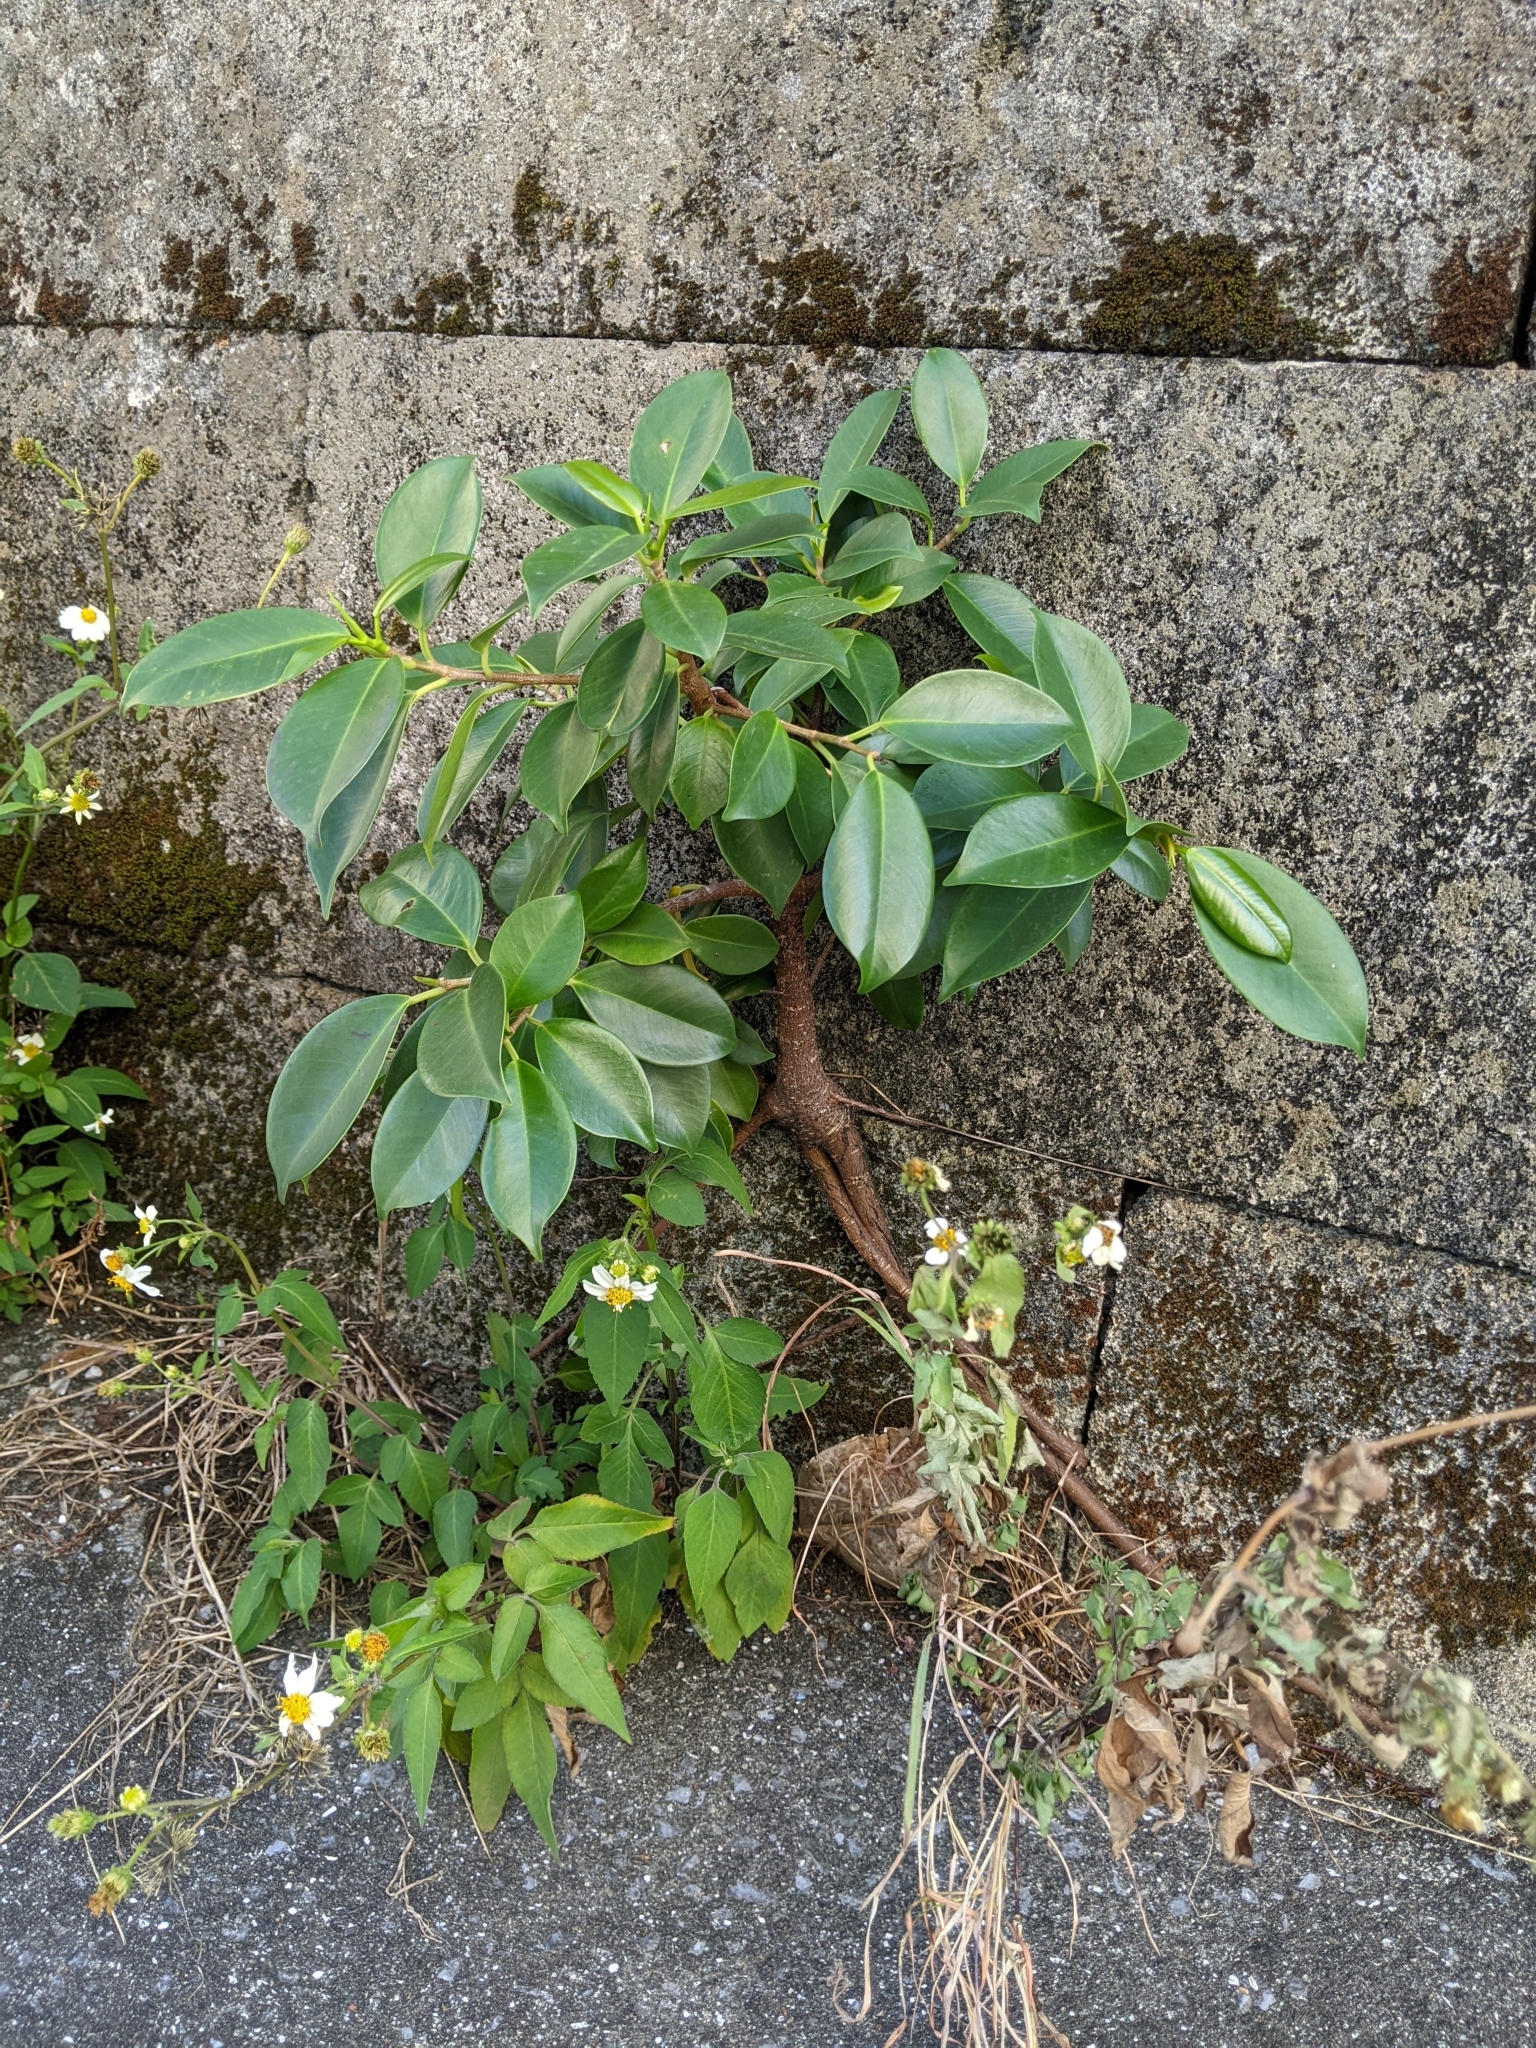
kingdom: Plantae
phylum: Tracheophyta
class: Magnoliopsida
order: Rosales
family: Moraceae
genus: Ficus
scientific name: Ficus microcarpa
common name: Chinese banyan
